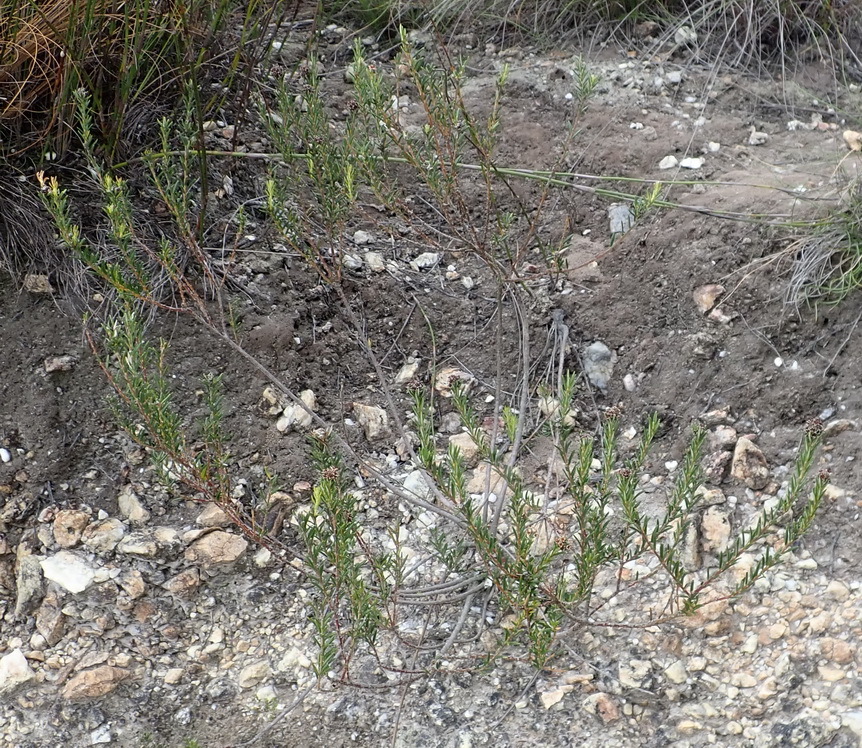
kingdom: Plantae
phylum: Tracheophyta
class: Magnoliopsida
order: Rosales
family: Rhamnaceae
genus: Phylica
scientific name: Phylica imberbis
